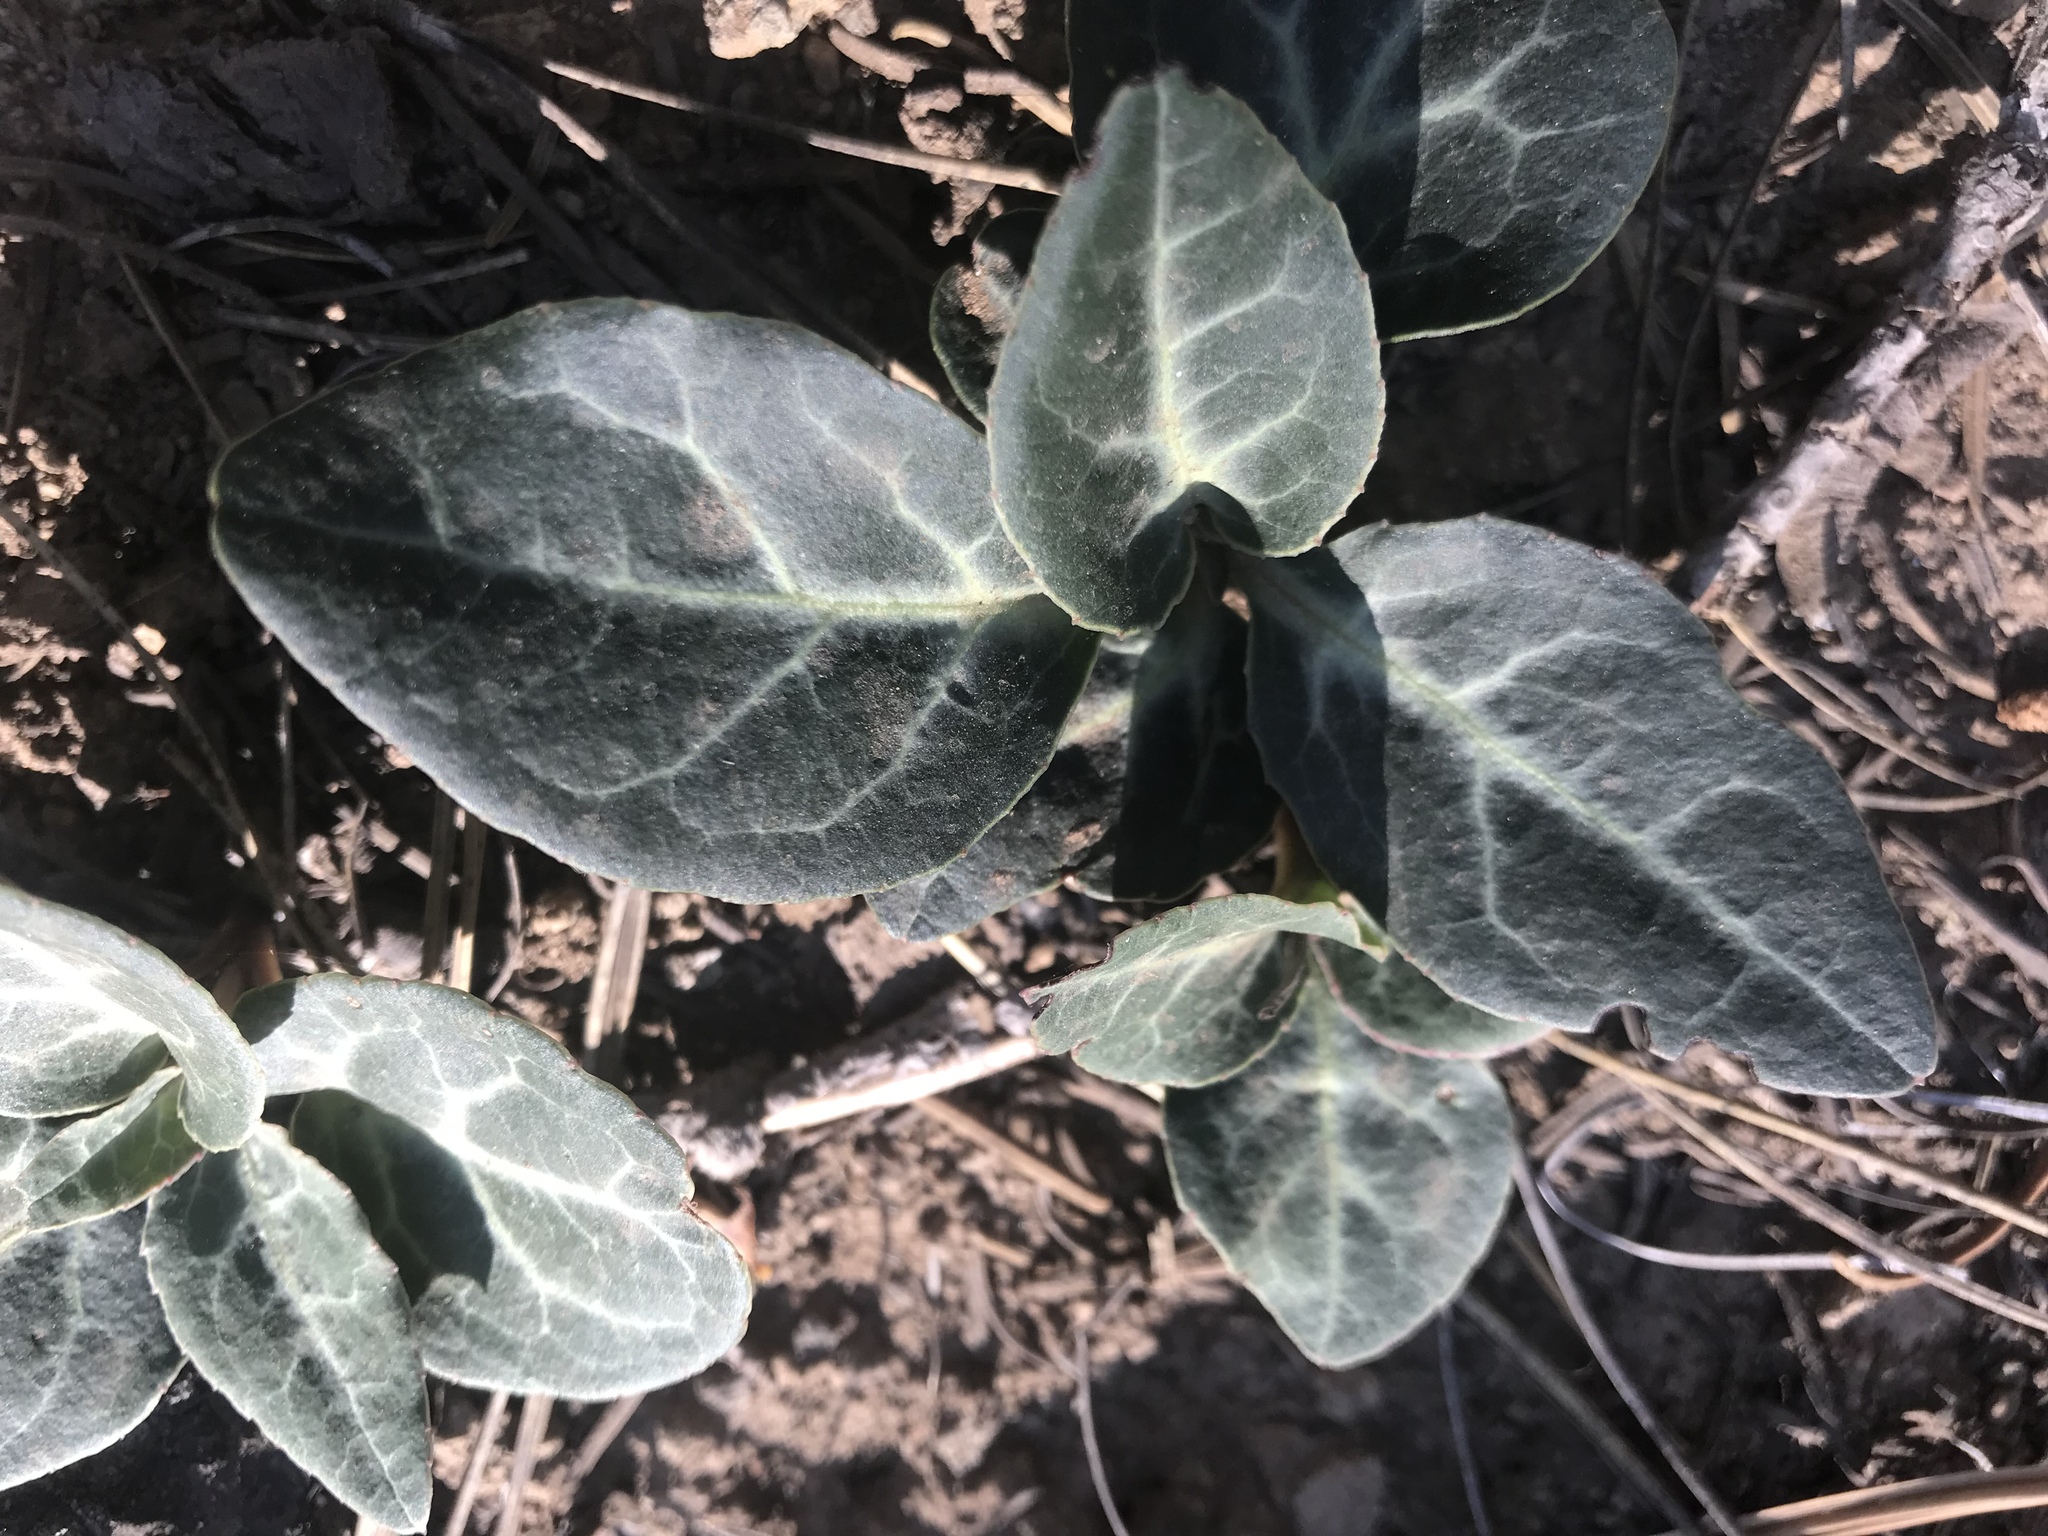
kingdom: Plantae
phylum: Tracheophyta
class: Magnoliopsida
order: Ericales
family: Ericaceae
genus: Pyrola
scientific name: Pyrola picta
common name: White-vein wintergreen
